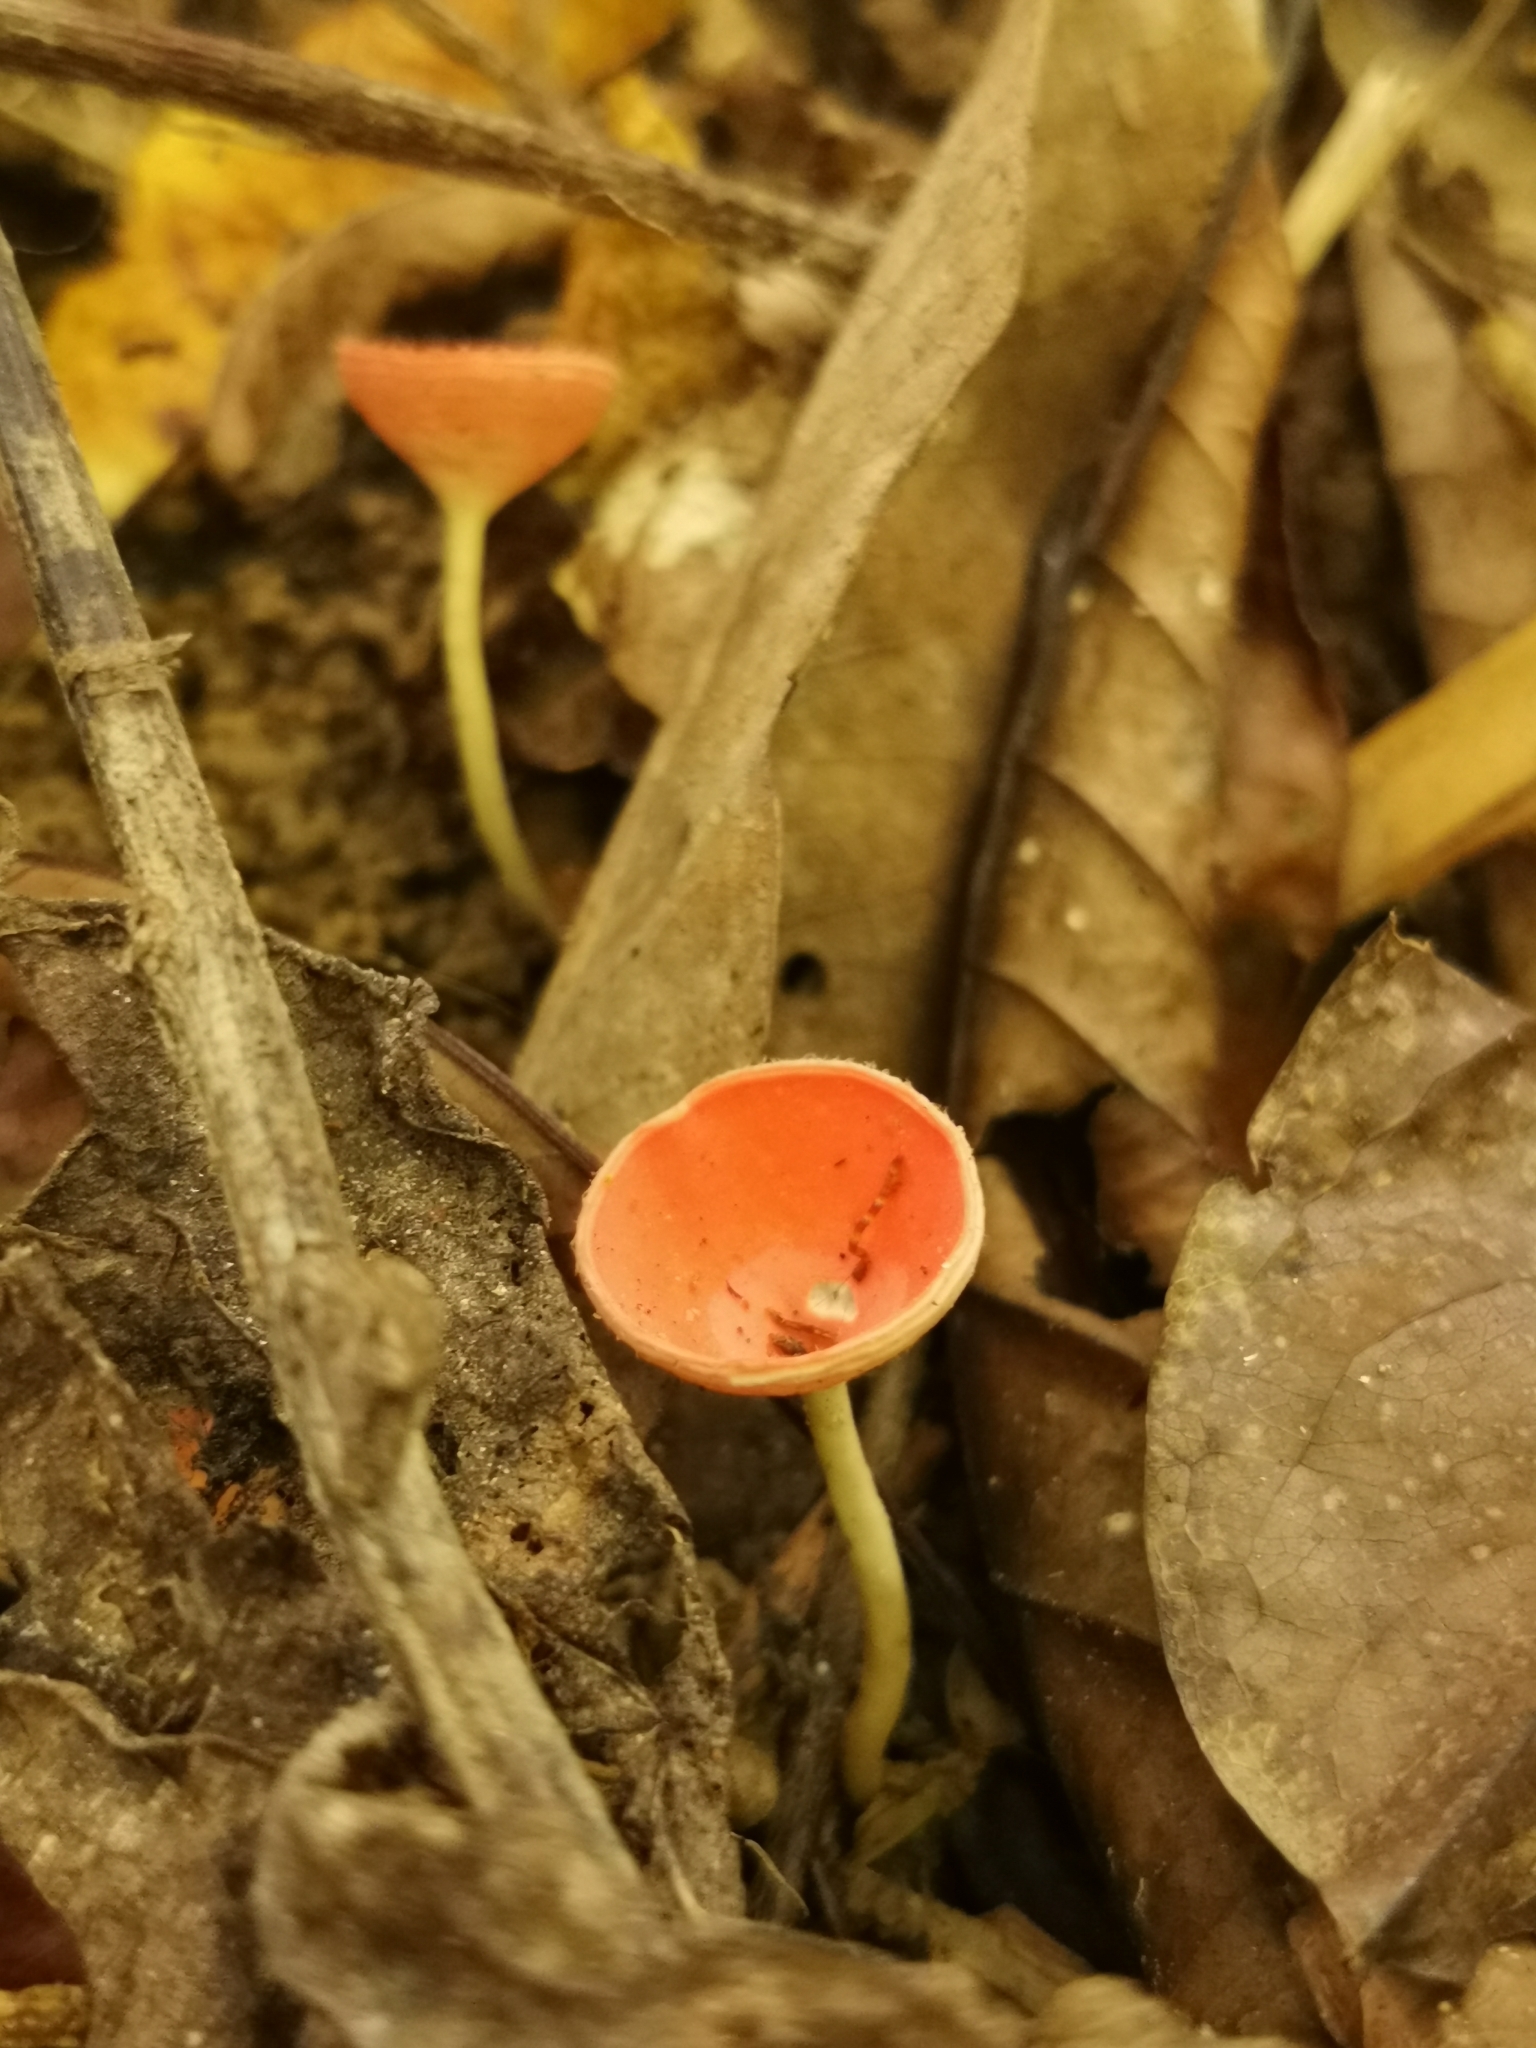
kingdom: Fungi
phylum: Ascomycota
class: Pezizomycetes
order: Pezizales
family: Sarcoscyphaceae
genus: Cookeina
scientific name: Cookeina speciosa
